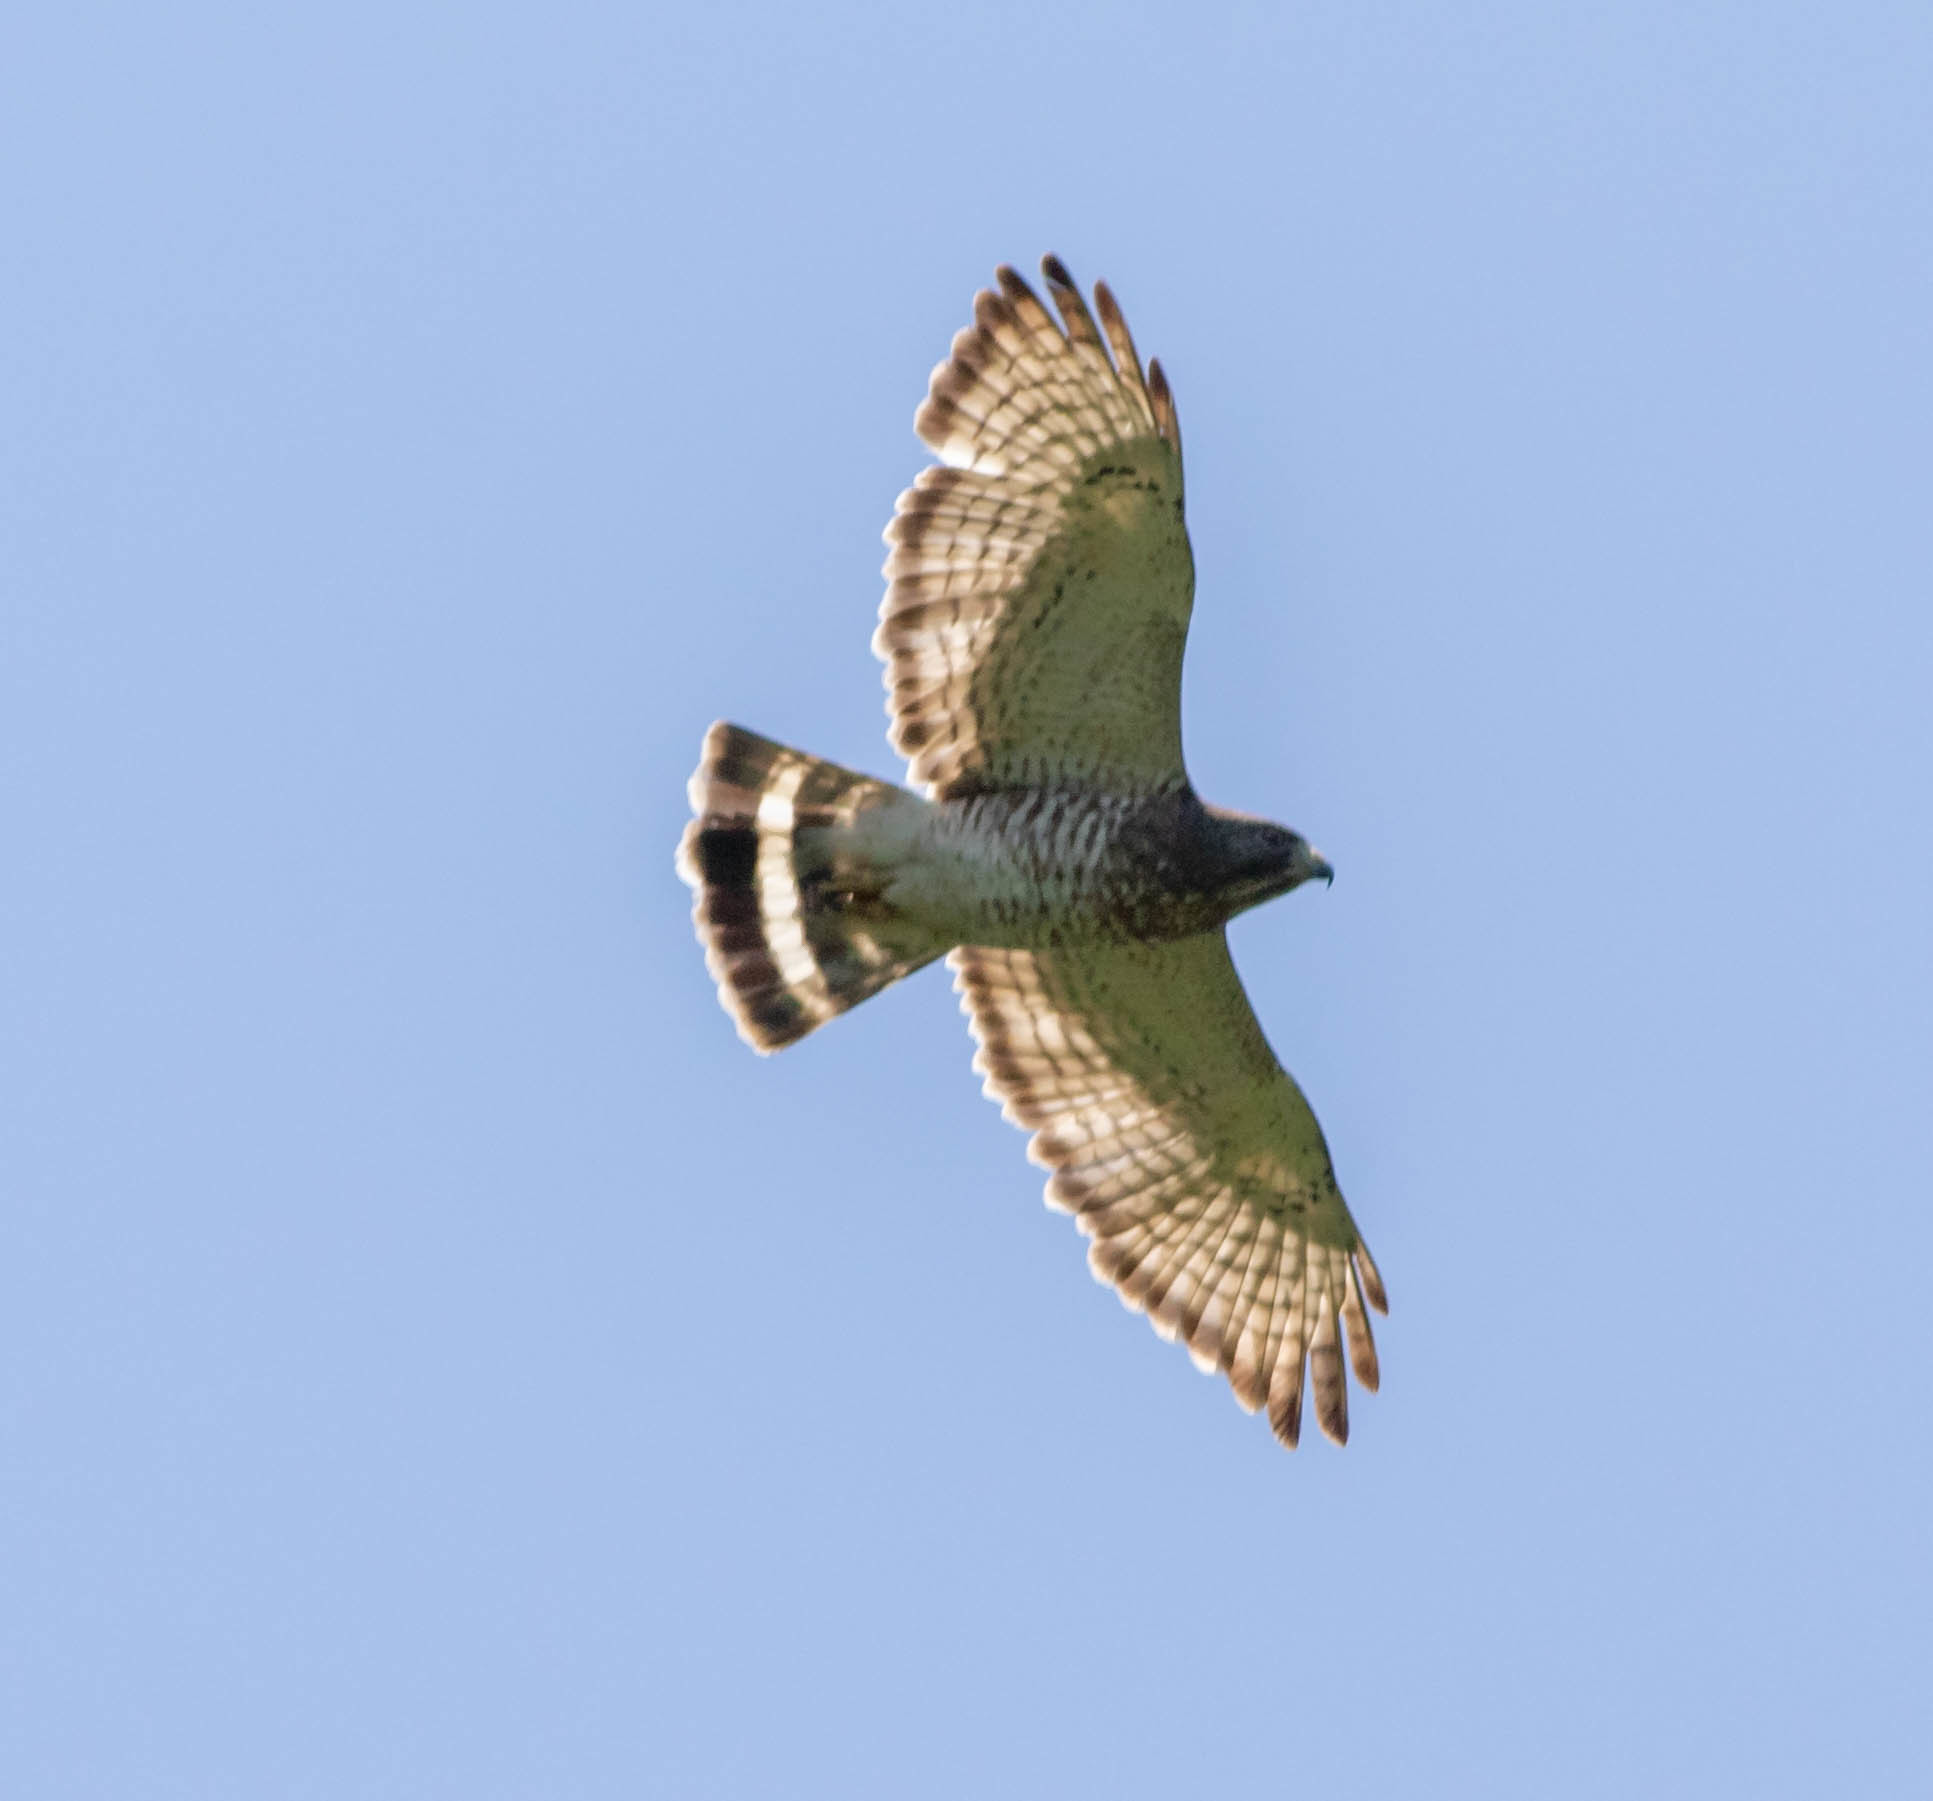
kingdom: Animalia
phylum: Chordata
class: Aves
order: Accipitriformes
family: Accipitridae
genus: Buteo
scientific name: Buteo platypterus
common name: Broad-winged hawk
